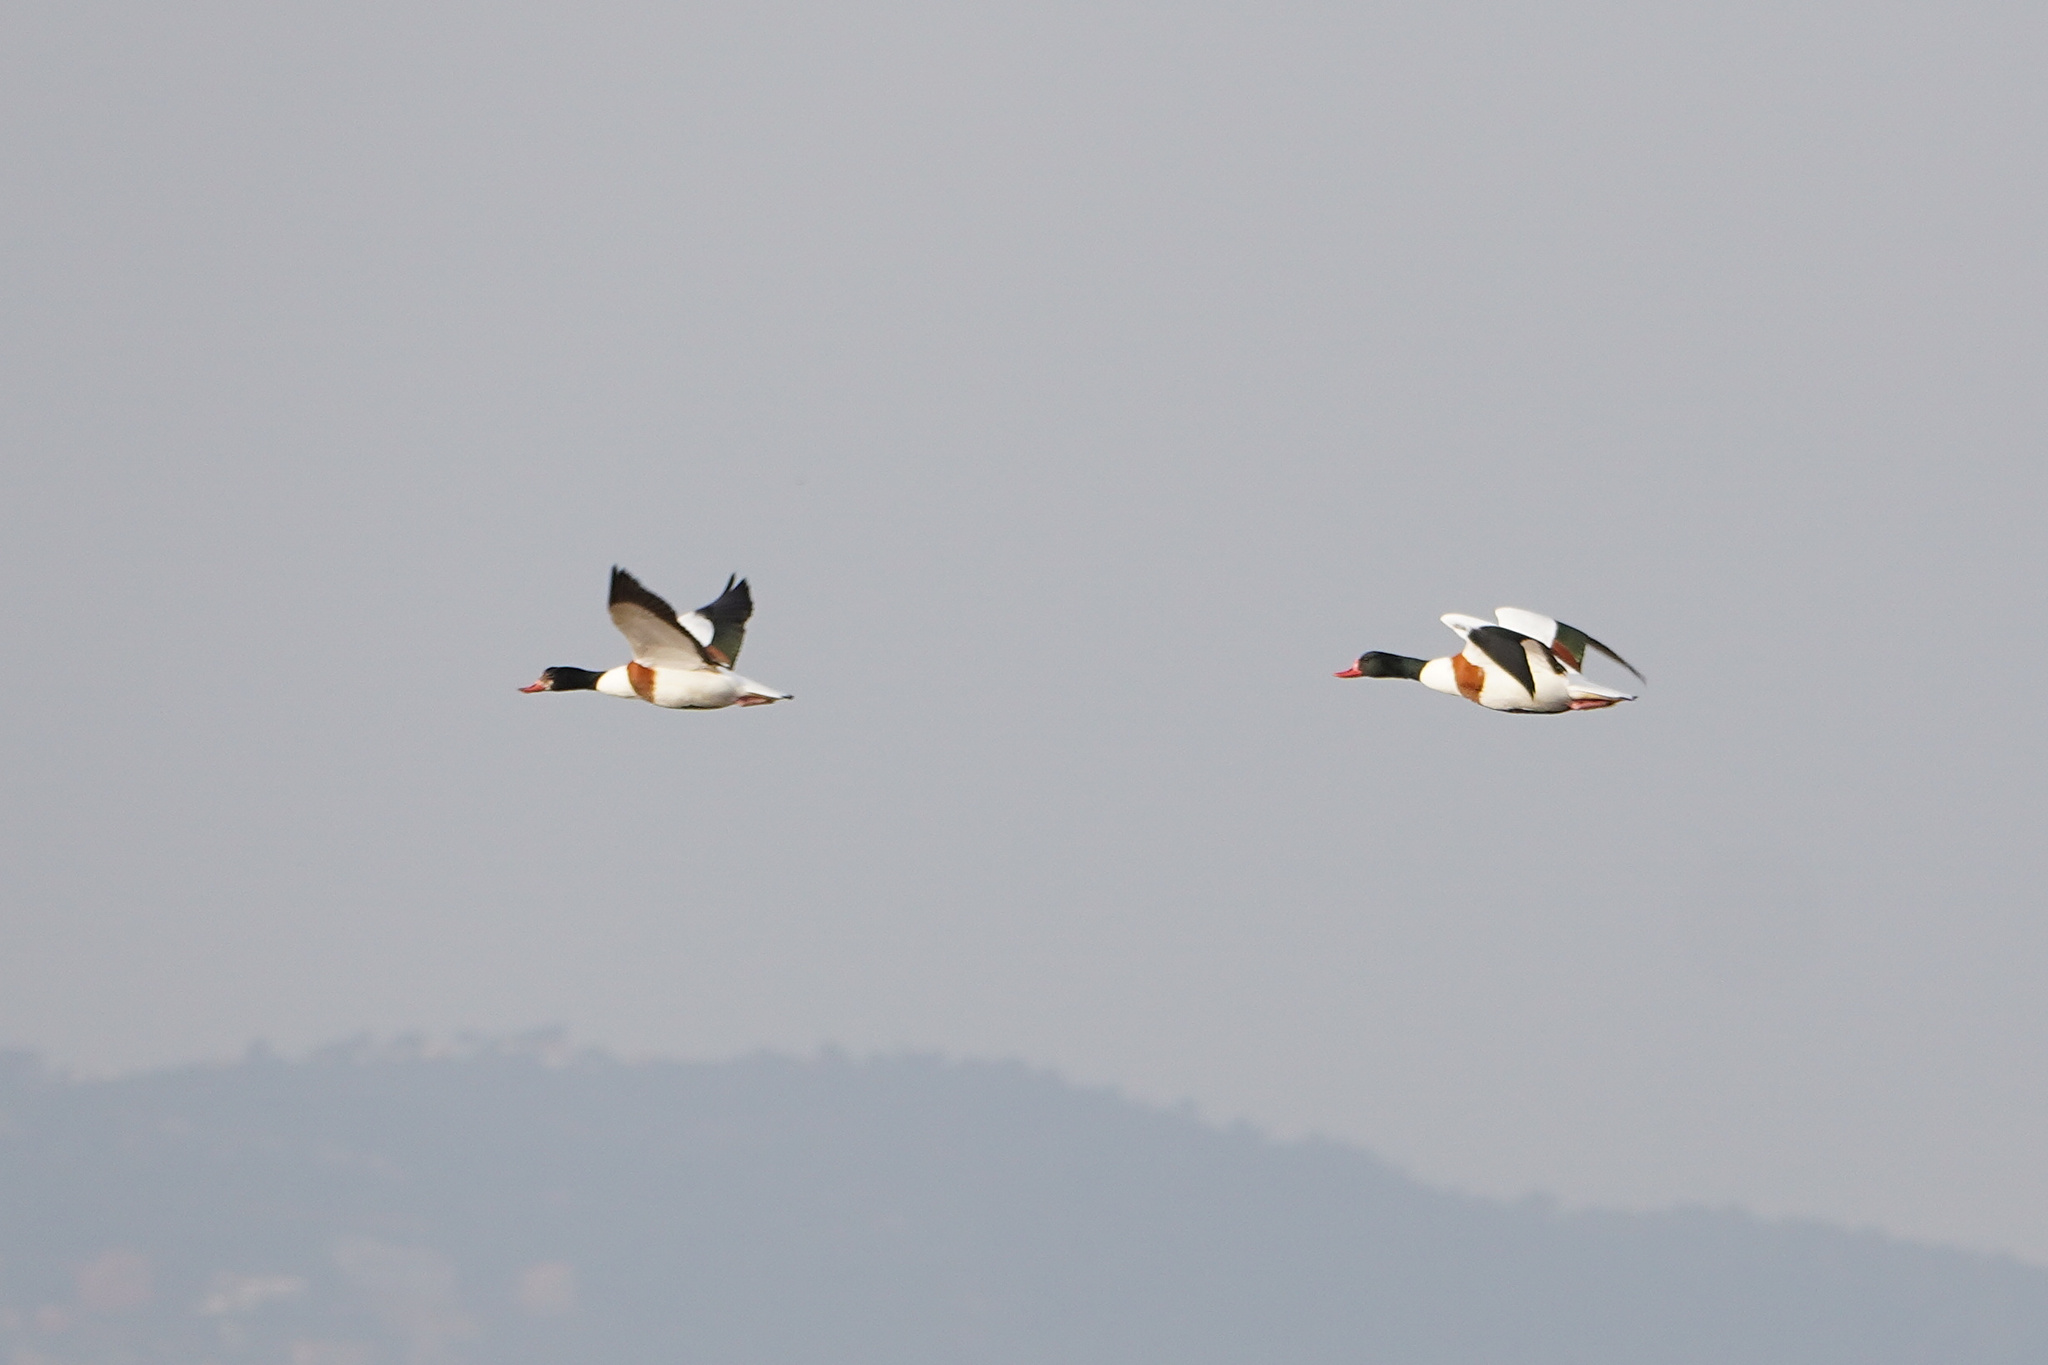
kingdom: Animalia
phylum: Chordata
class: Aves
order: Anseriformes
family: Anatidae
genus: Tadorna
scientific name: Tadorna tadorna
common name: Common shelduck
